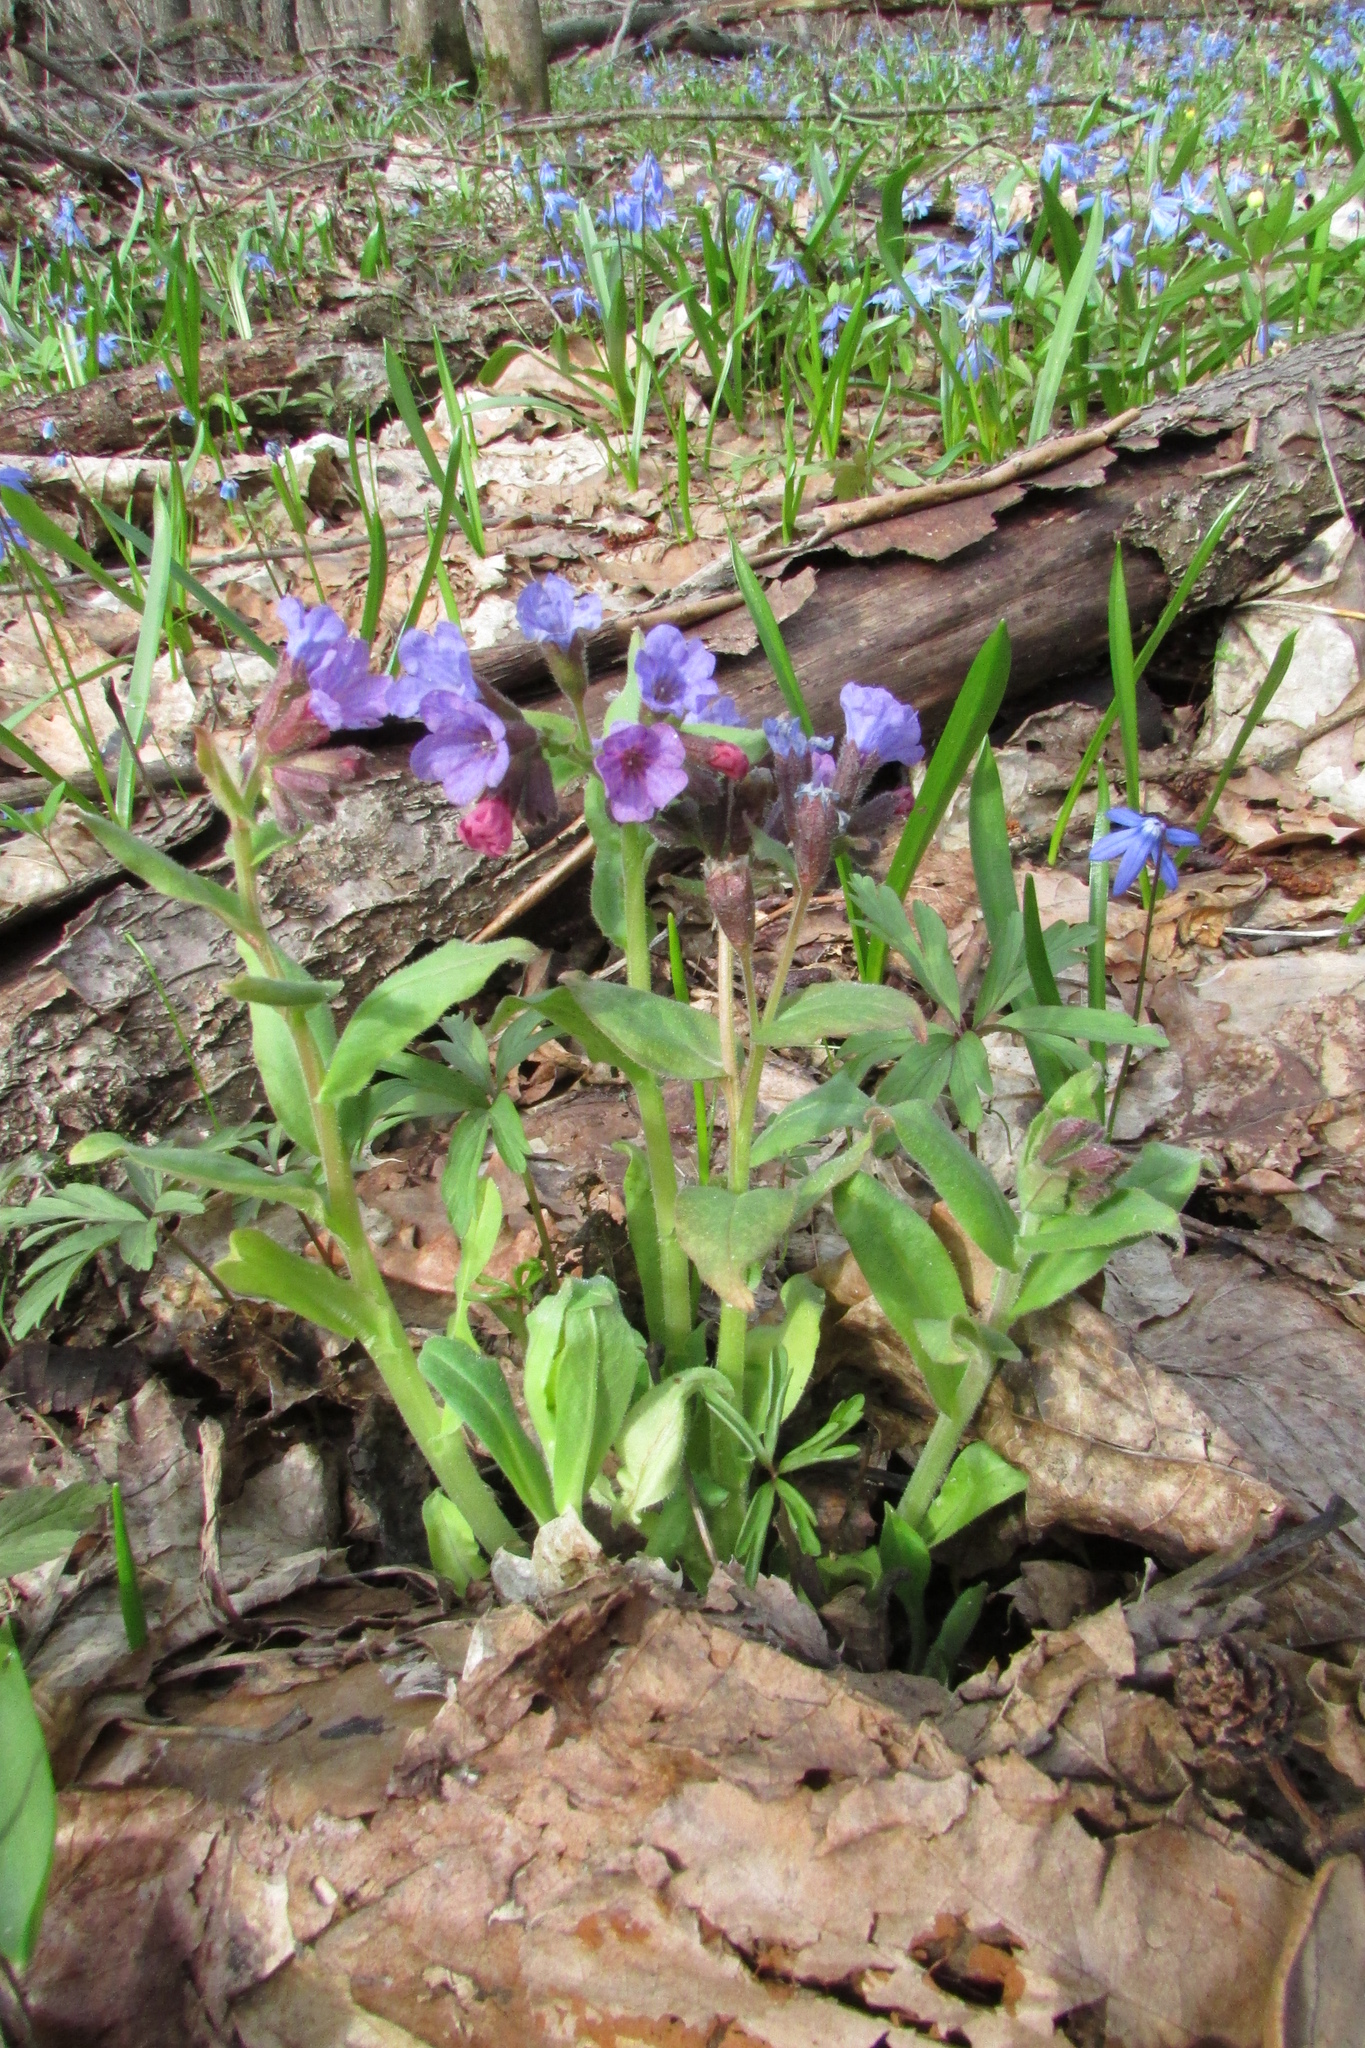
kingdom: Plantae
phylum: Tracheophyta
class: Magnoliopsida
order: Boraginales
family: Boraginaceae
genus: Pulmonaria
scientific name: Pulmonaria obscura
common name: Suffolk lungwort
